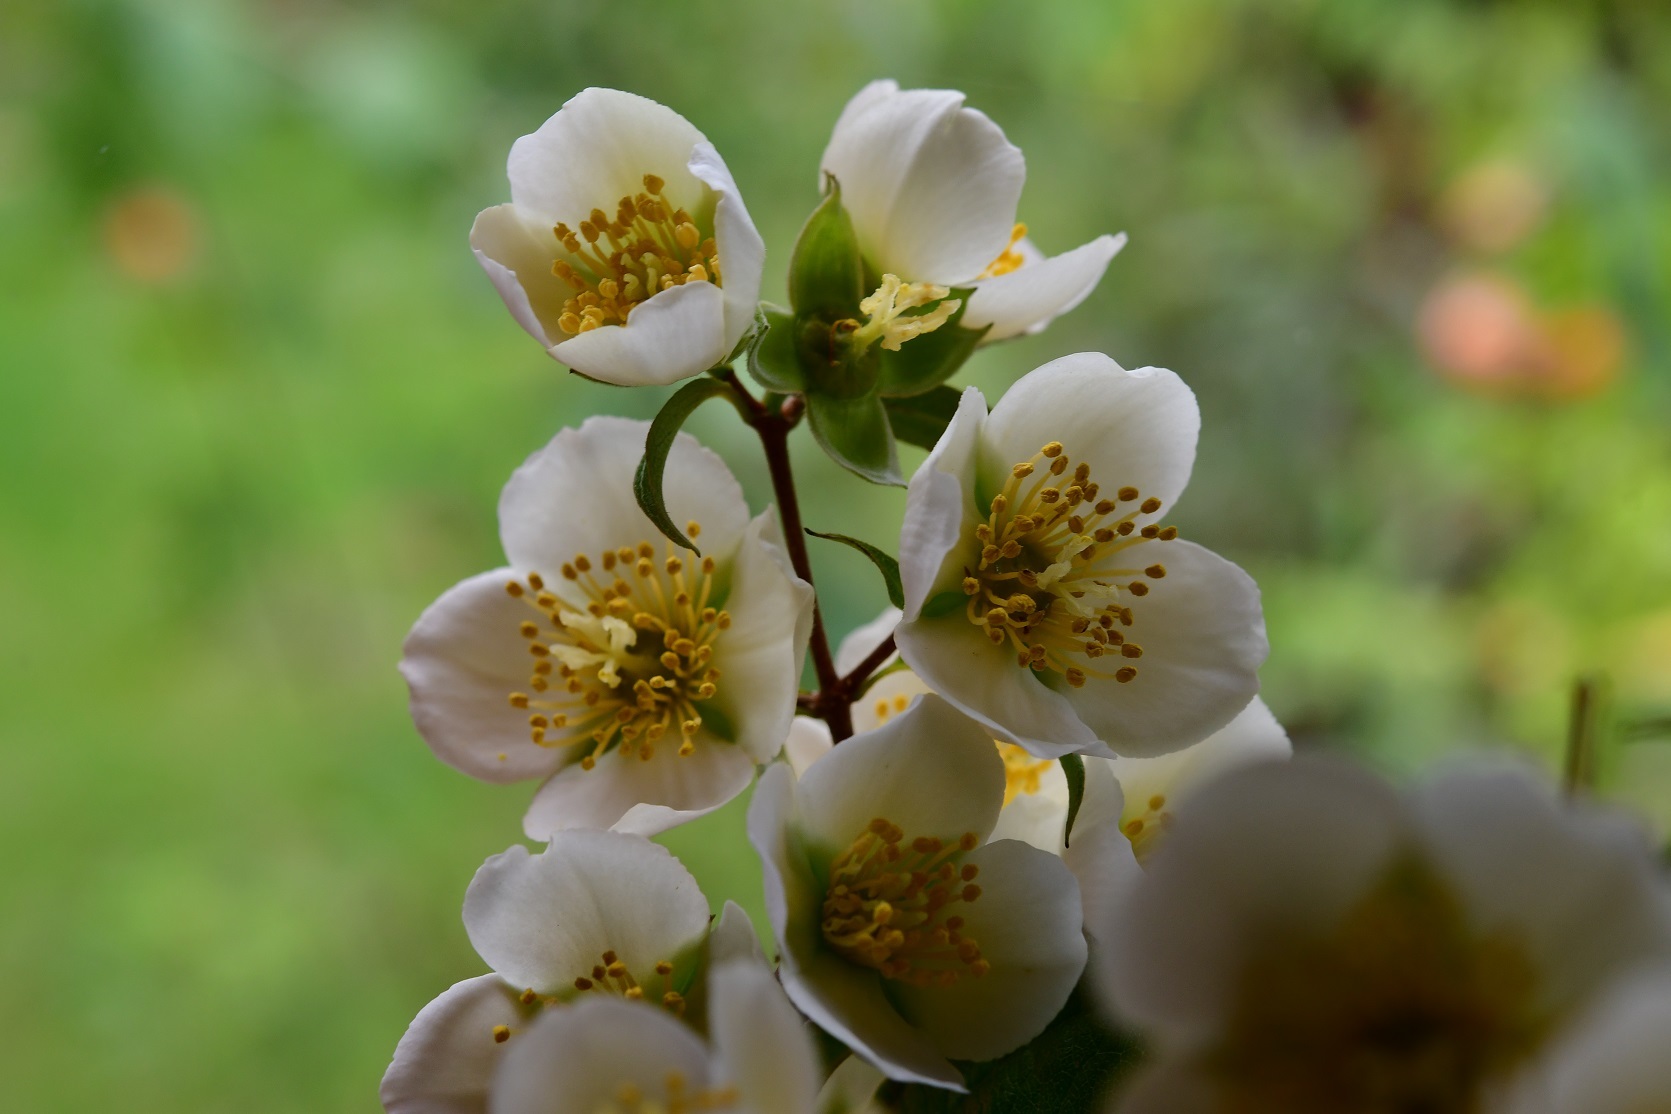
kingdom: Plantae
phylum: Tracheophyta
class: Magnoliopsida
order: Cornales
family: Hydrangeaceae
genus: Philadelphus
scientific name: Philadelphus mexicanus
